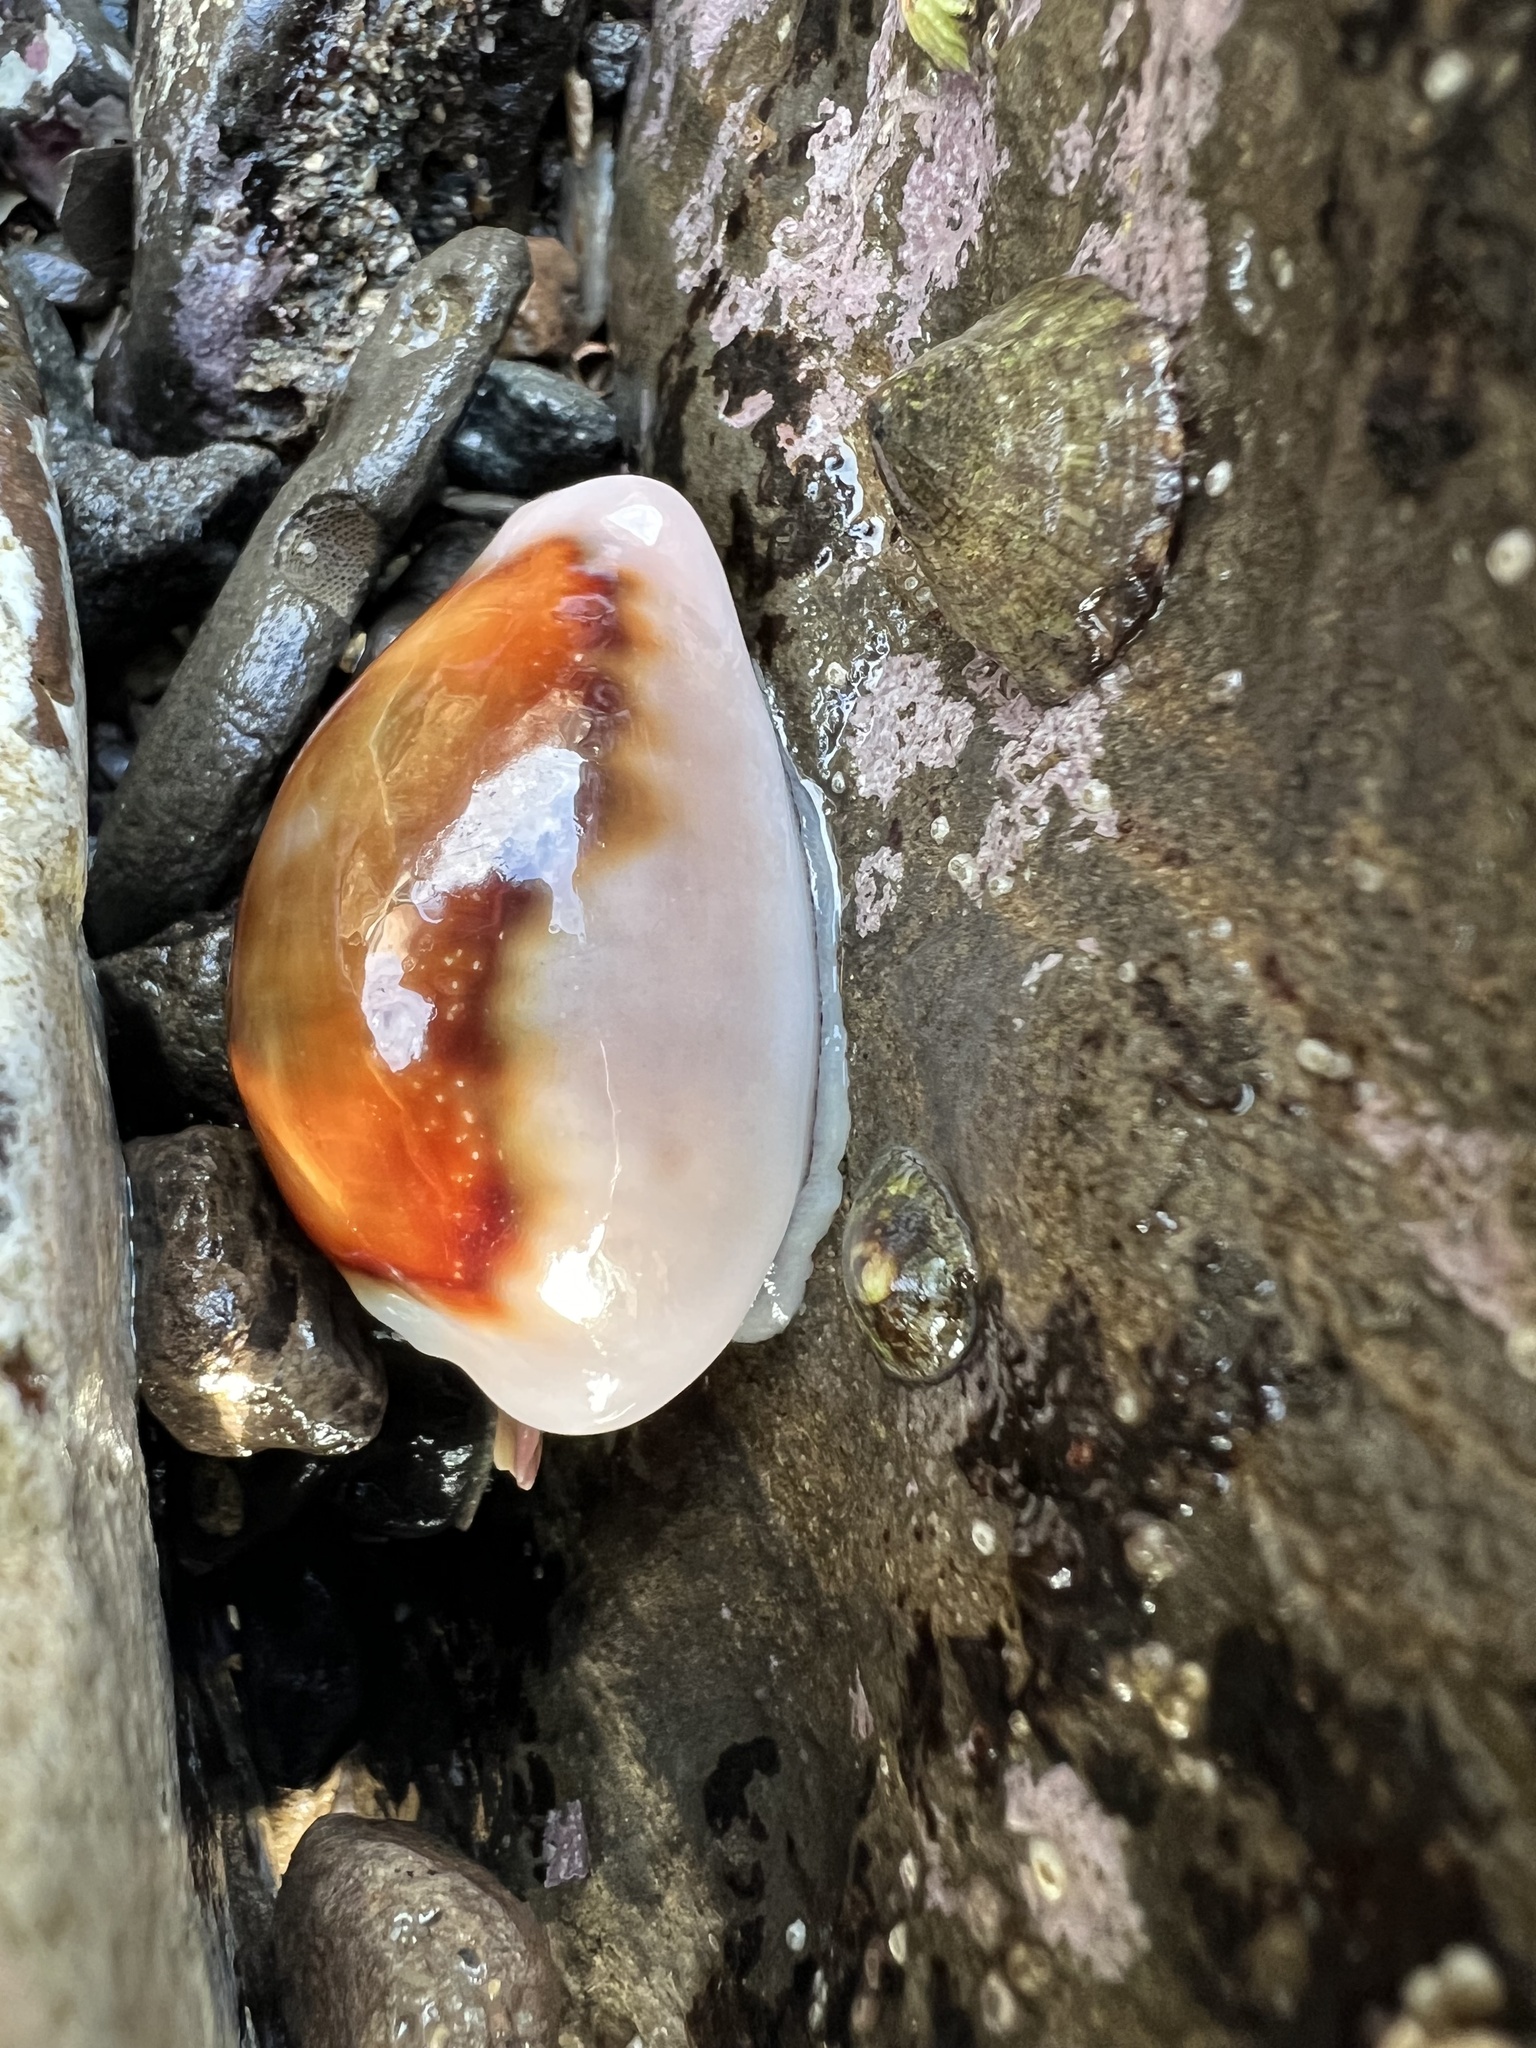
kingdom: Animalia
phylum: Mollusca
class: Gastropoda
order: Littorinimorpha
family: Cypraeidae
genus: Neobernaya
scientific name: Neobernaya spadicea
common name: Chestnut cowrie
